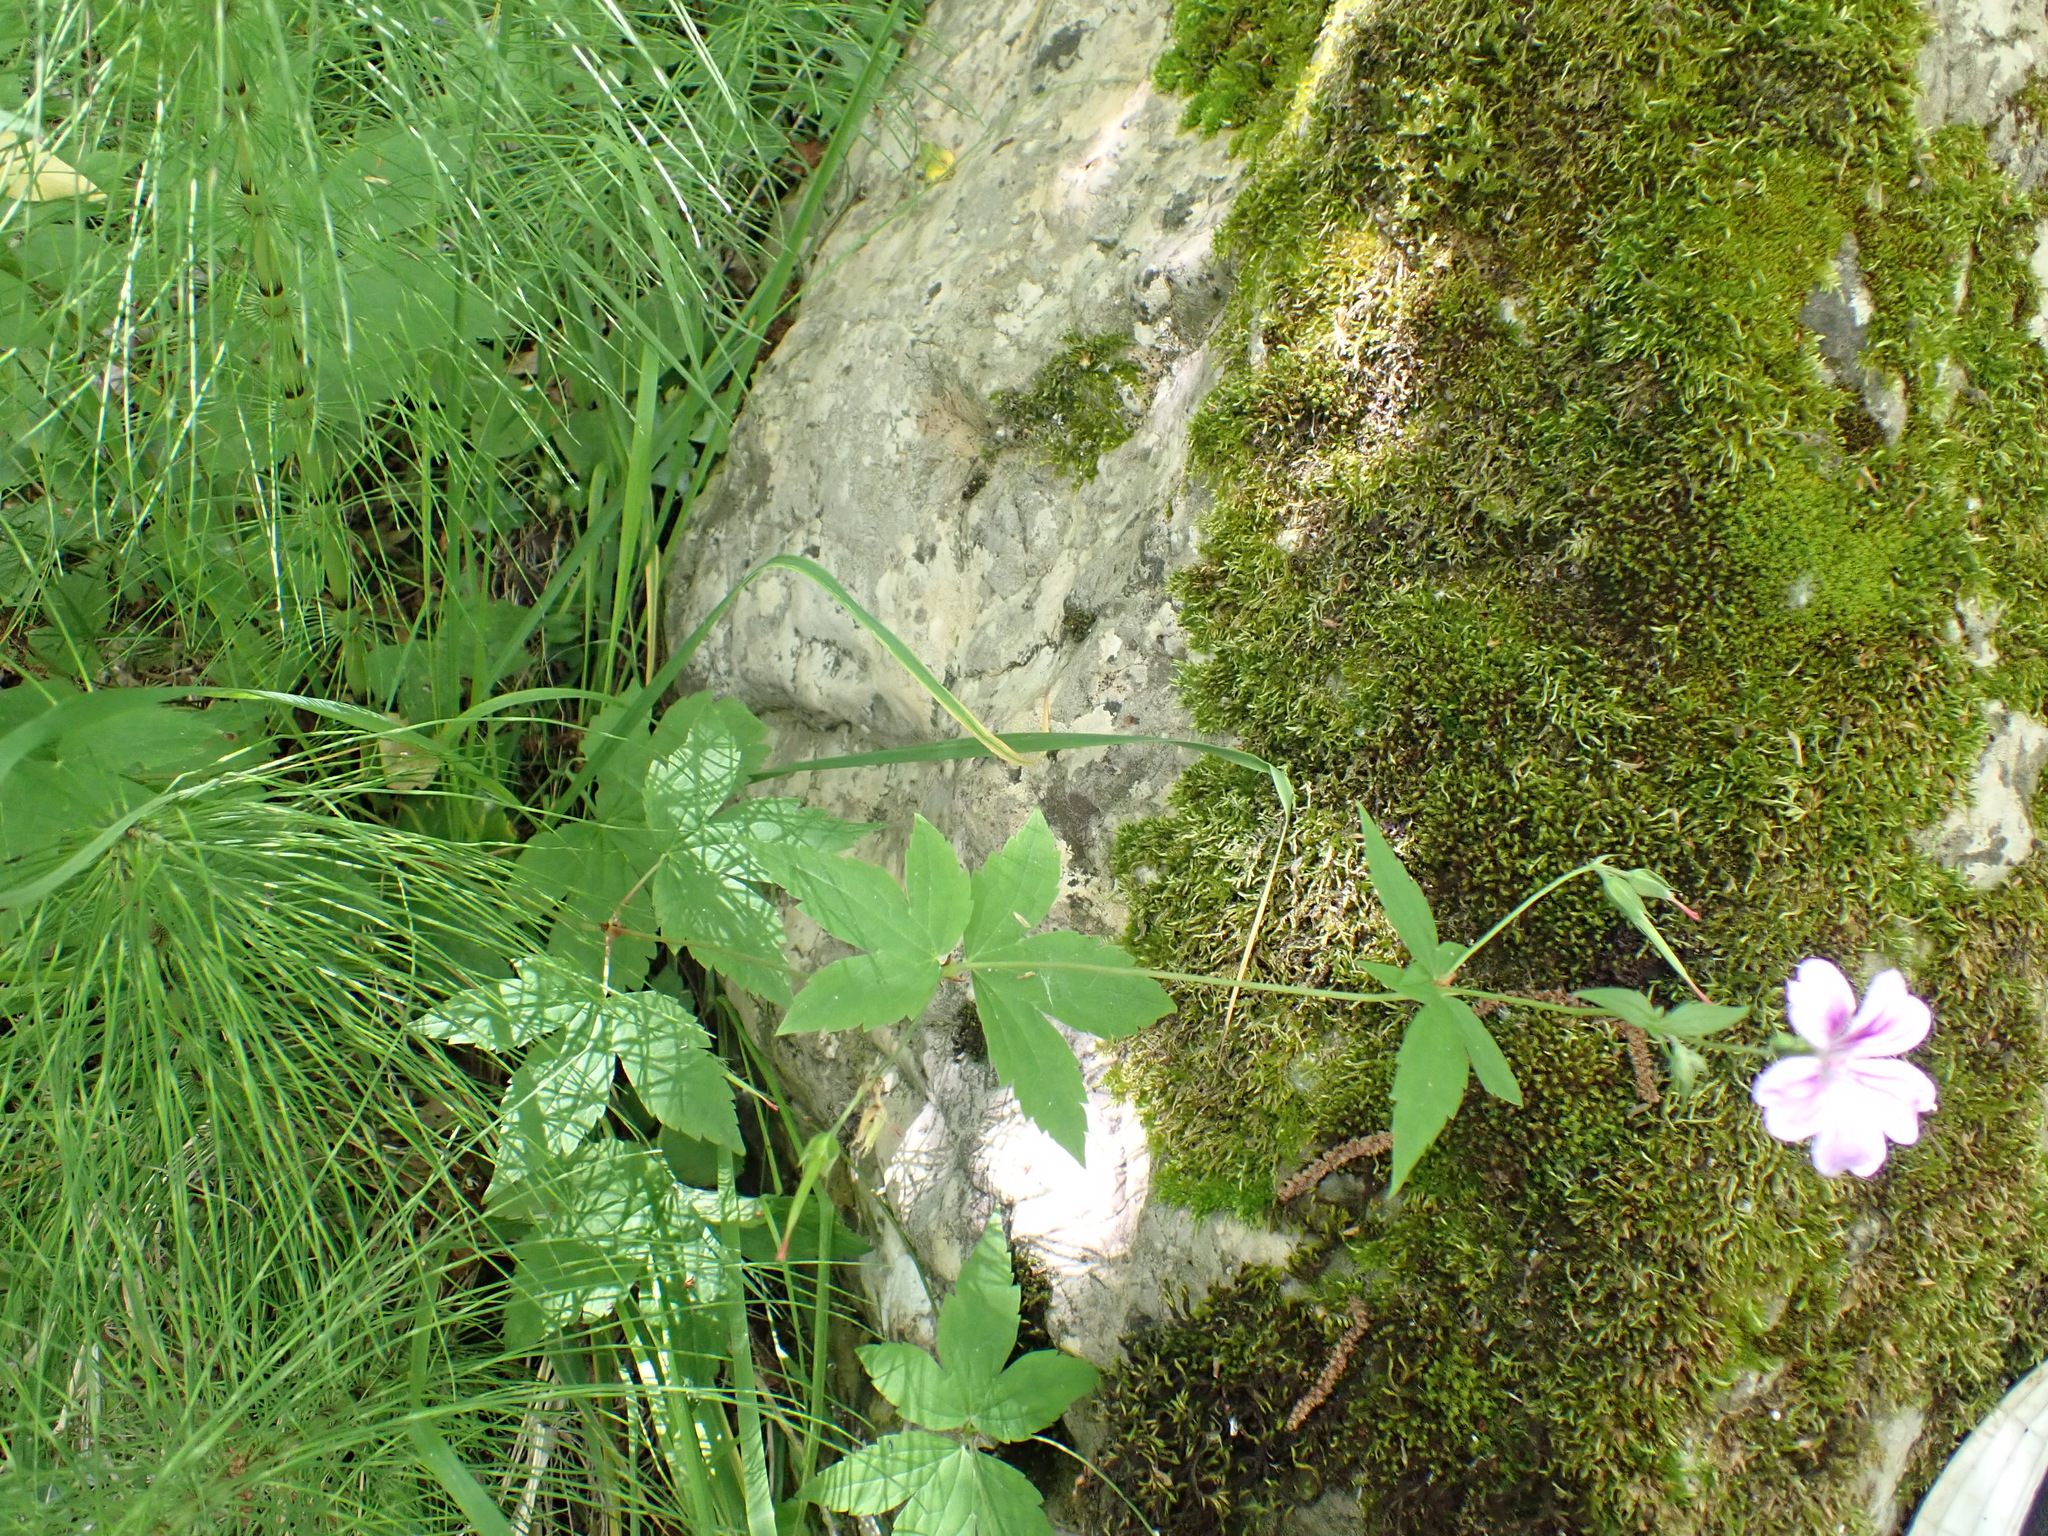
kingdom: Plantae
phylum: Tracheophyta
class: Magnoliopsida
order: Geraniales
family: Geraniaceae
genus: Geranium
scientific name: Geranium nodosum
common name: Knotted crane's-bill
